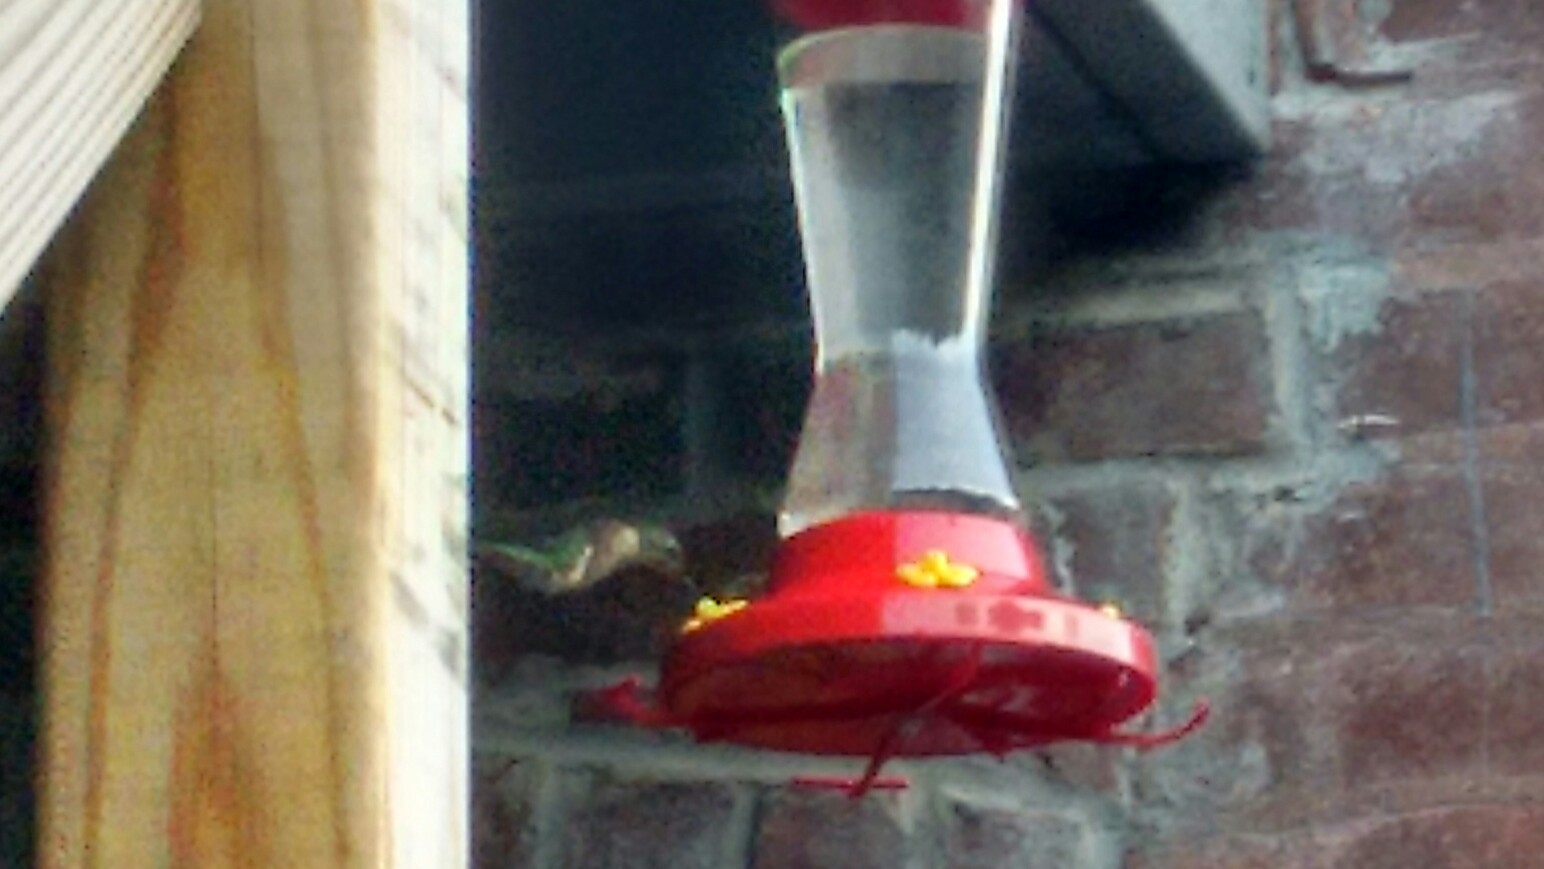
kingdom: Animalia
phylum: Chordata
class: Aves
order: Apodiformes
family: Trochilidae
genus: Archilochus
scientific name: Archilochus colubris
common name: Ruby-throated hummingbird
